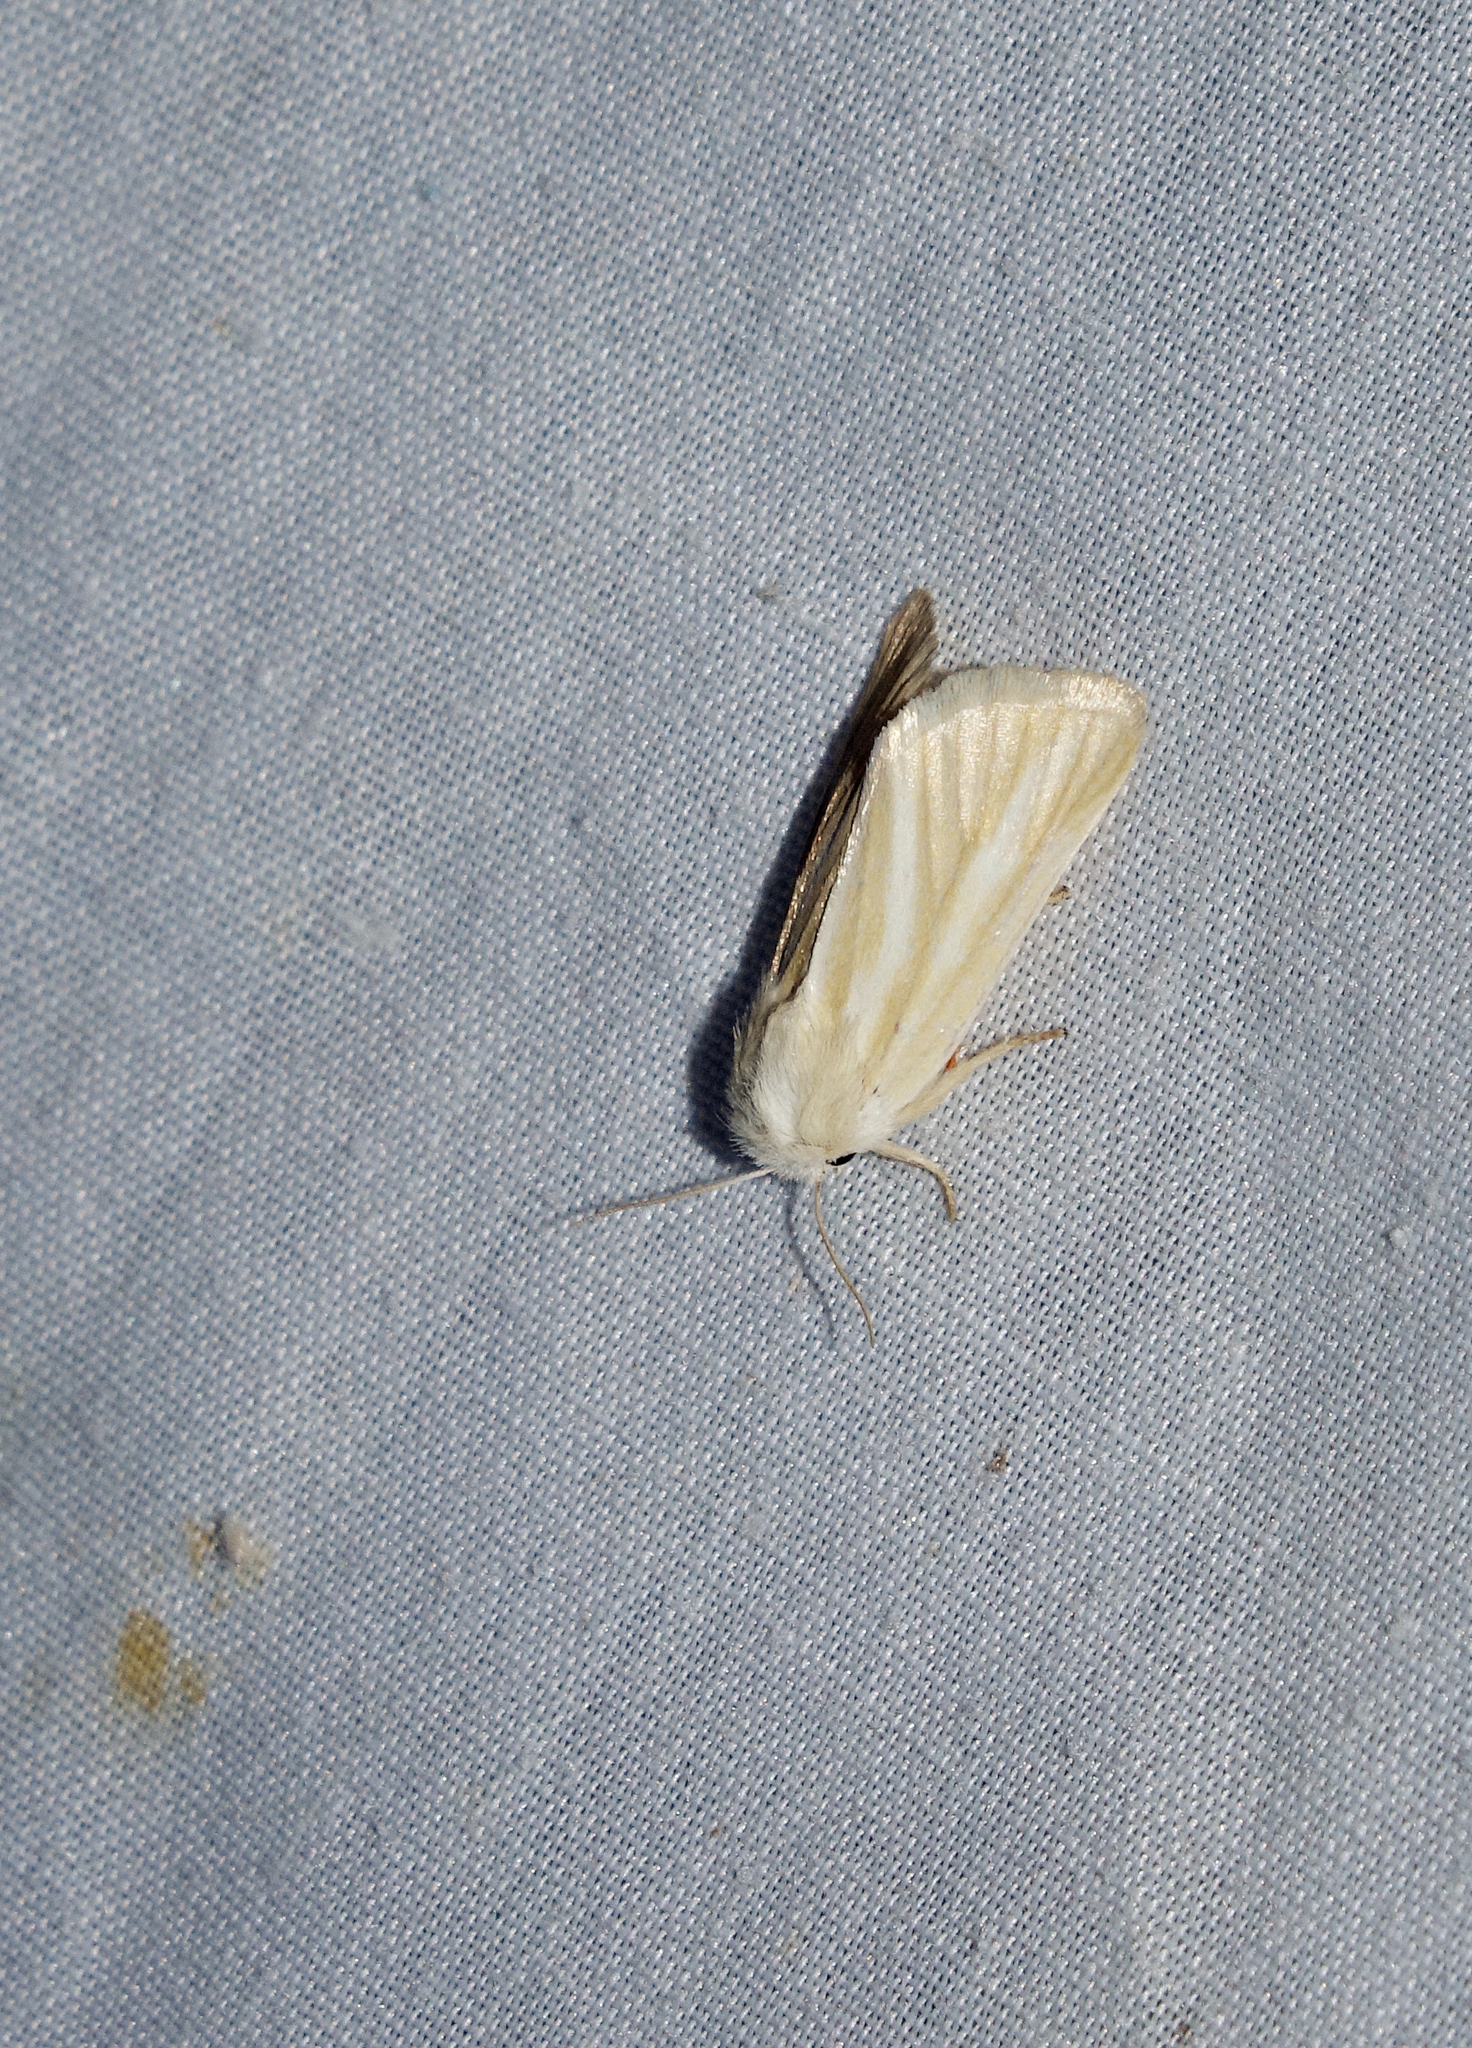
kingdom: Animalia
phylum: Arthropoda
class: Insecta
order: Lepidoptera
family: Noctuidae
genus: Oria
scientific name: Oria musculosa
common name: Brighton wainscot
